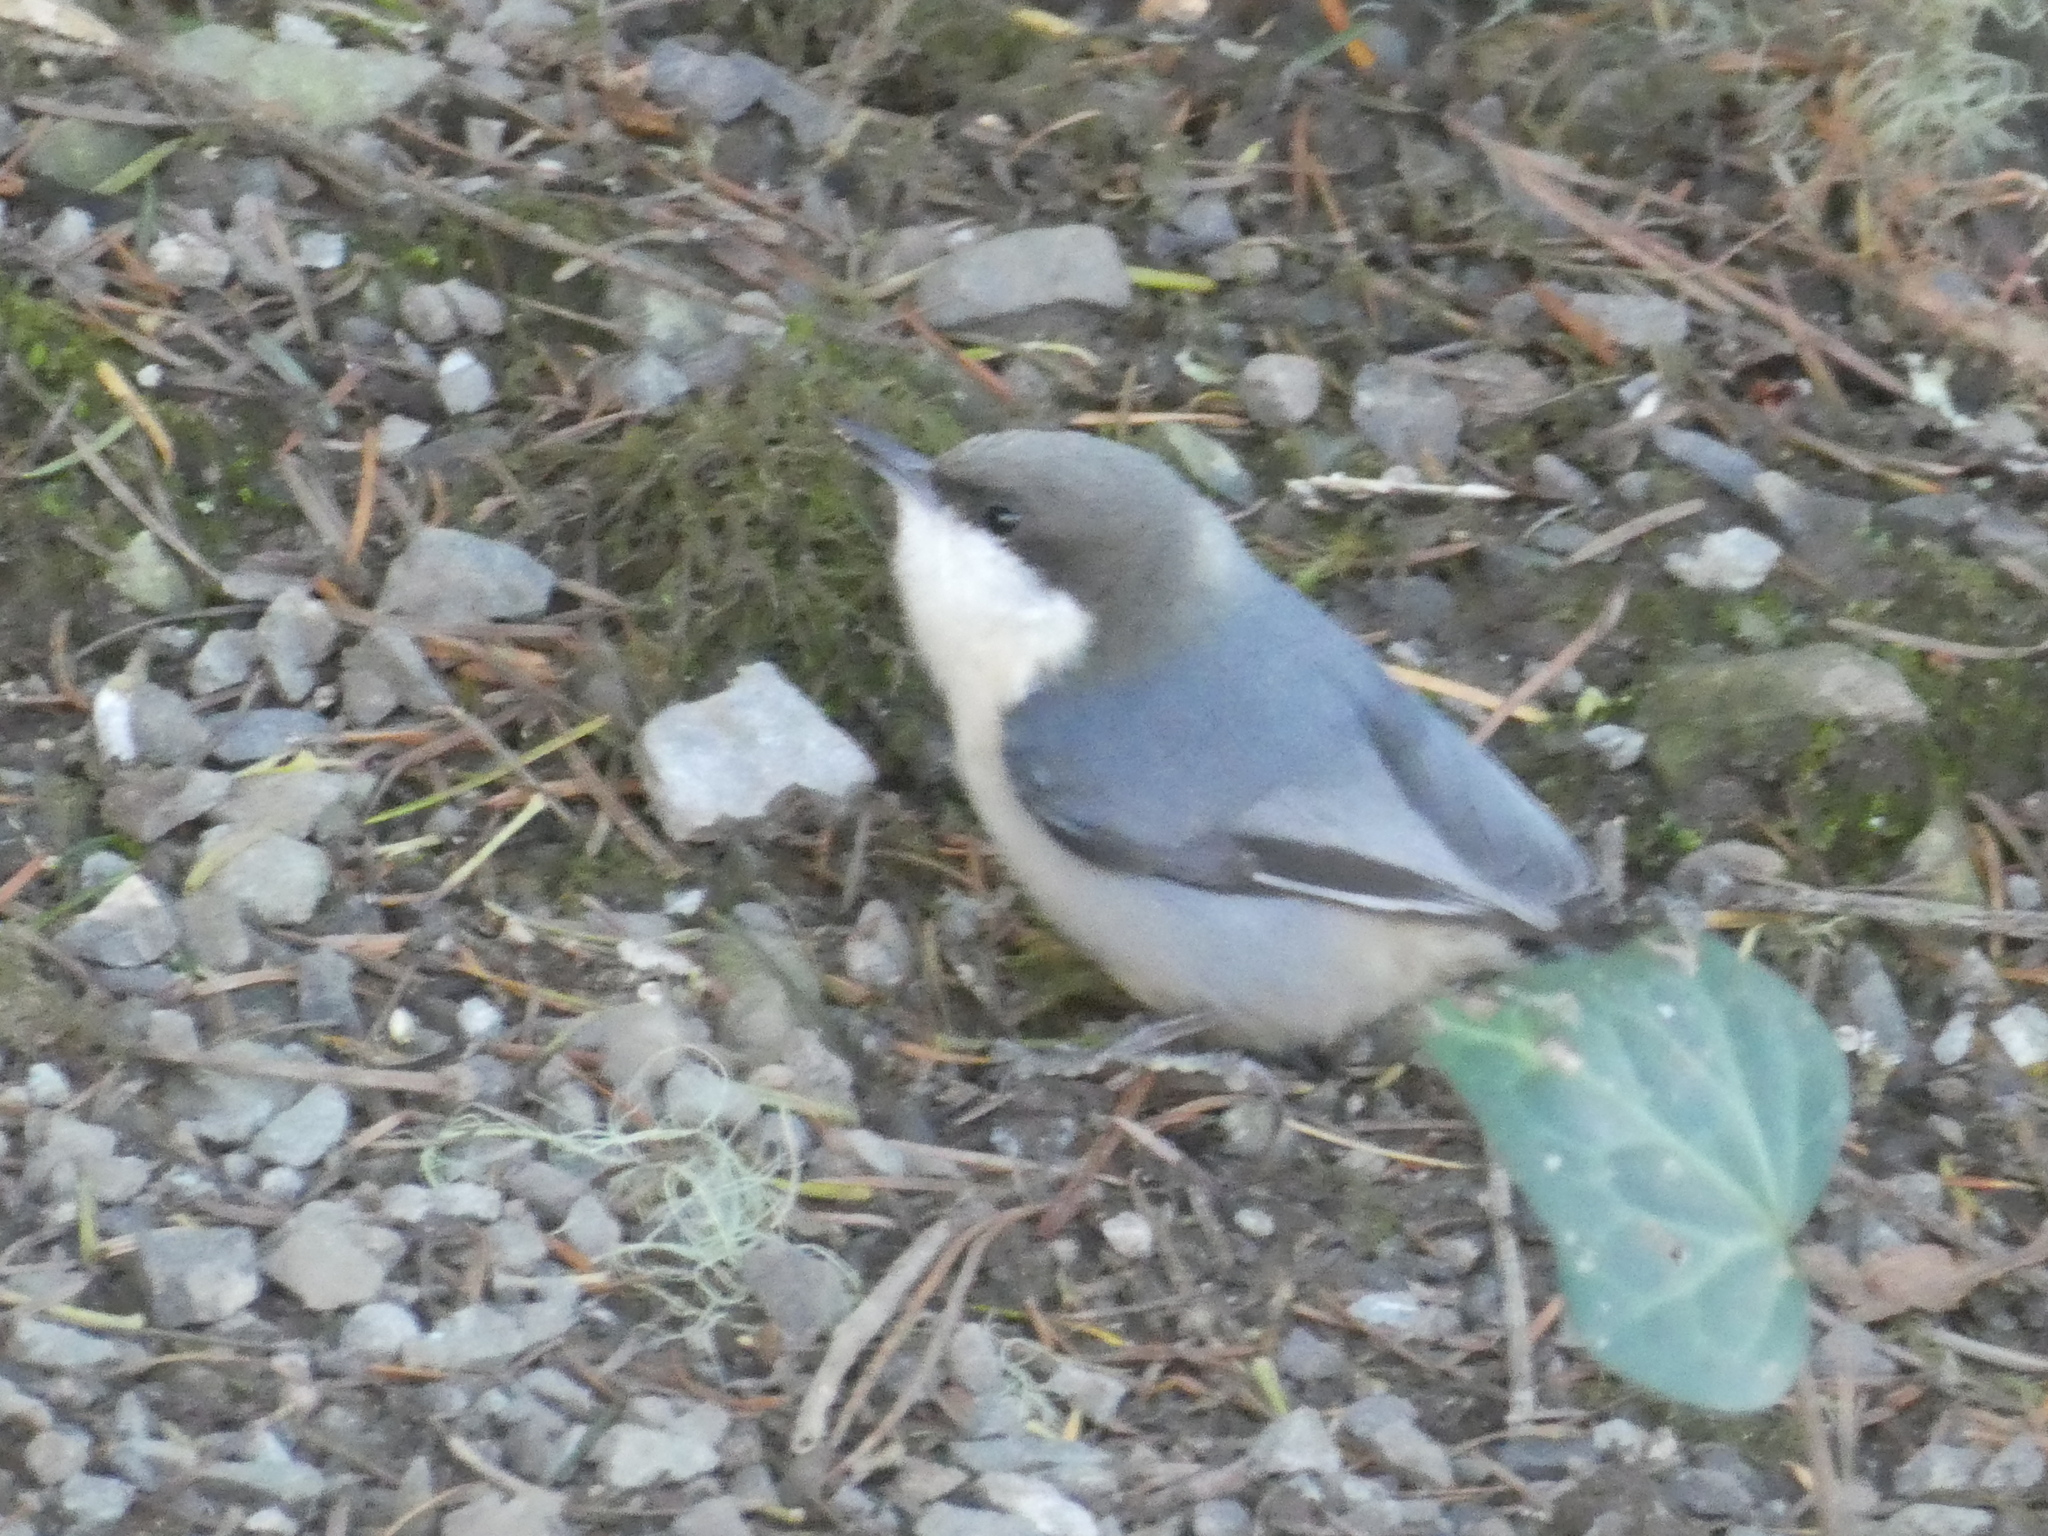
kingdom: Animalia
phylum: Chordata
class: Aves
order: Passeriformes
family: Sittidae
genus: Sitta
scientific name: Sitta pygmaea
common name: Pygmy nuthatch
